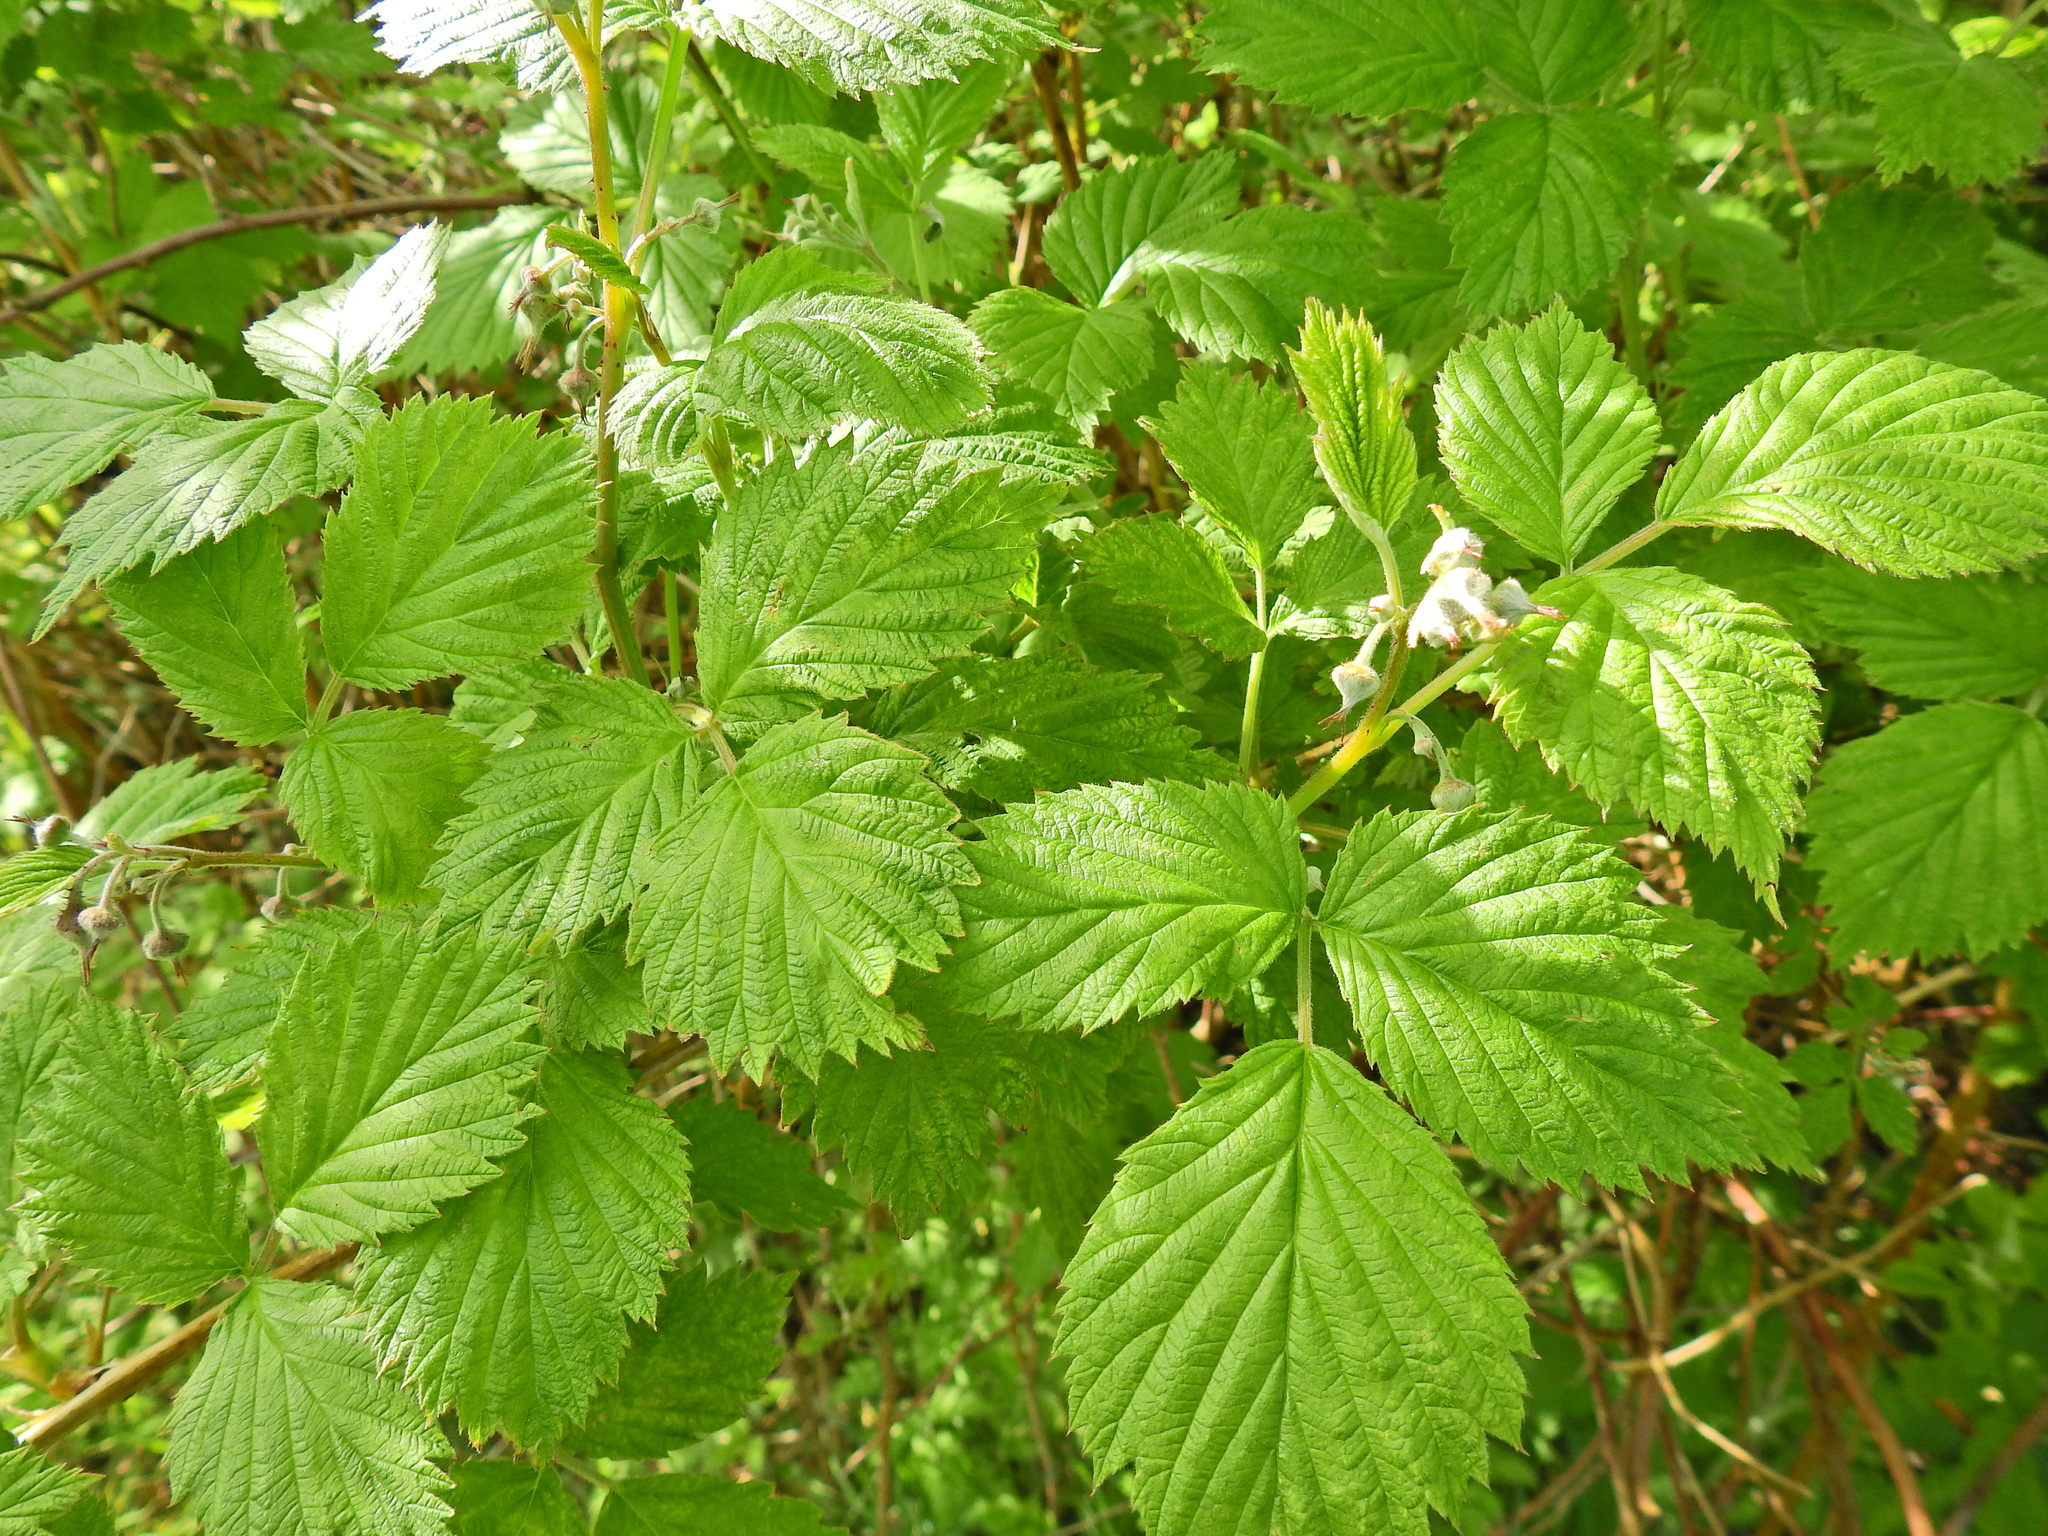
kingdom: Plantae
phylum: Tracheophyta
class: Magnoliopsida
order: Rosales
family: Rosaceae
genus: Rubus
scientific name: Rubus idaeus
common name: Raspberry
